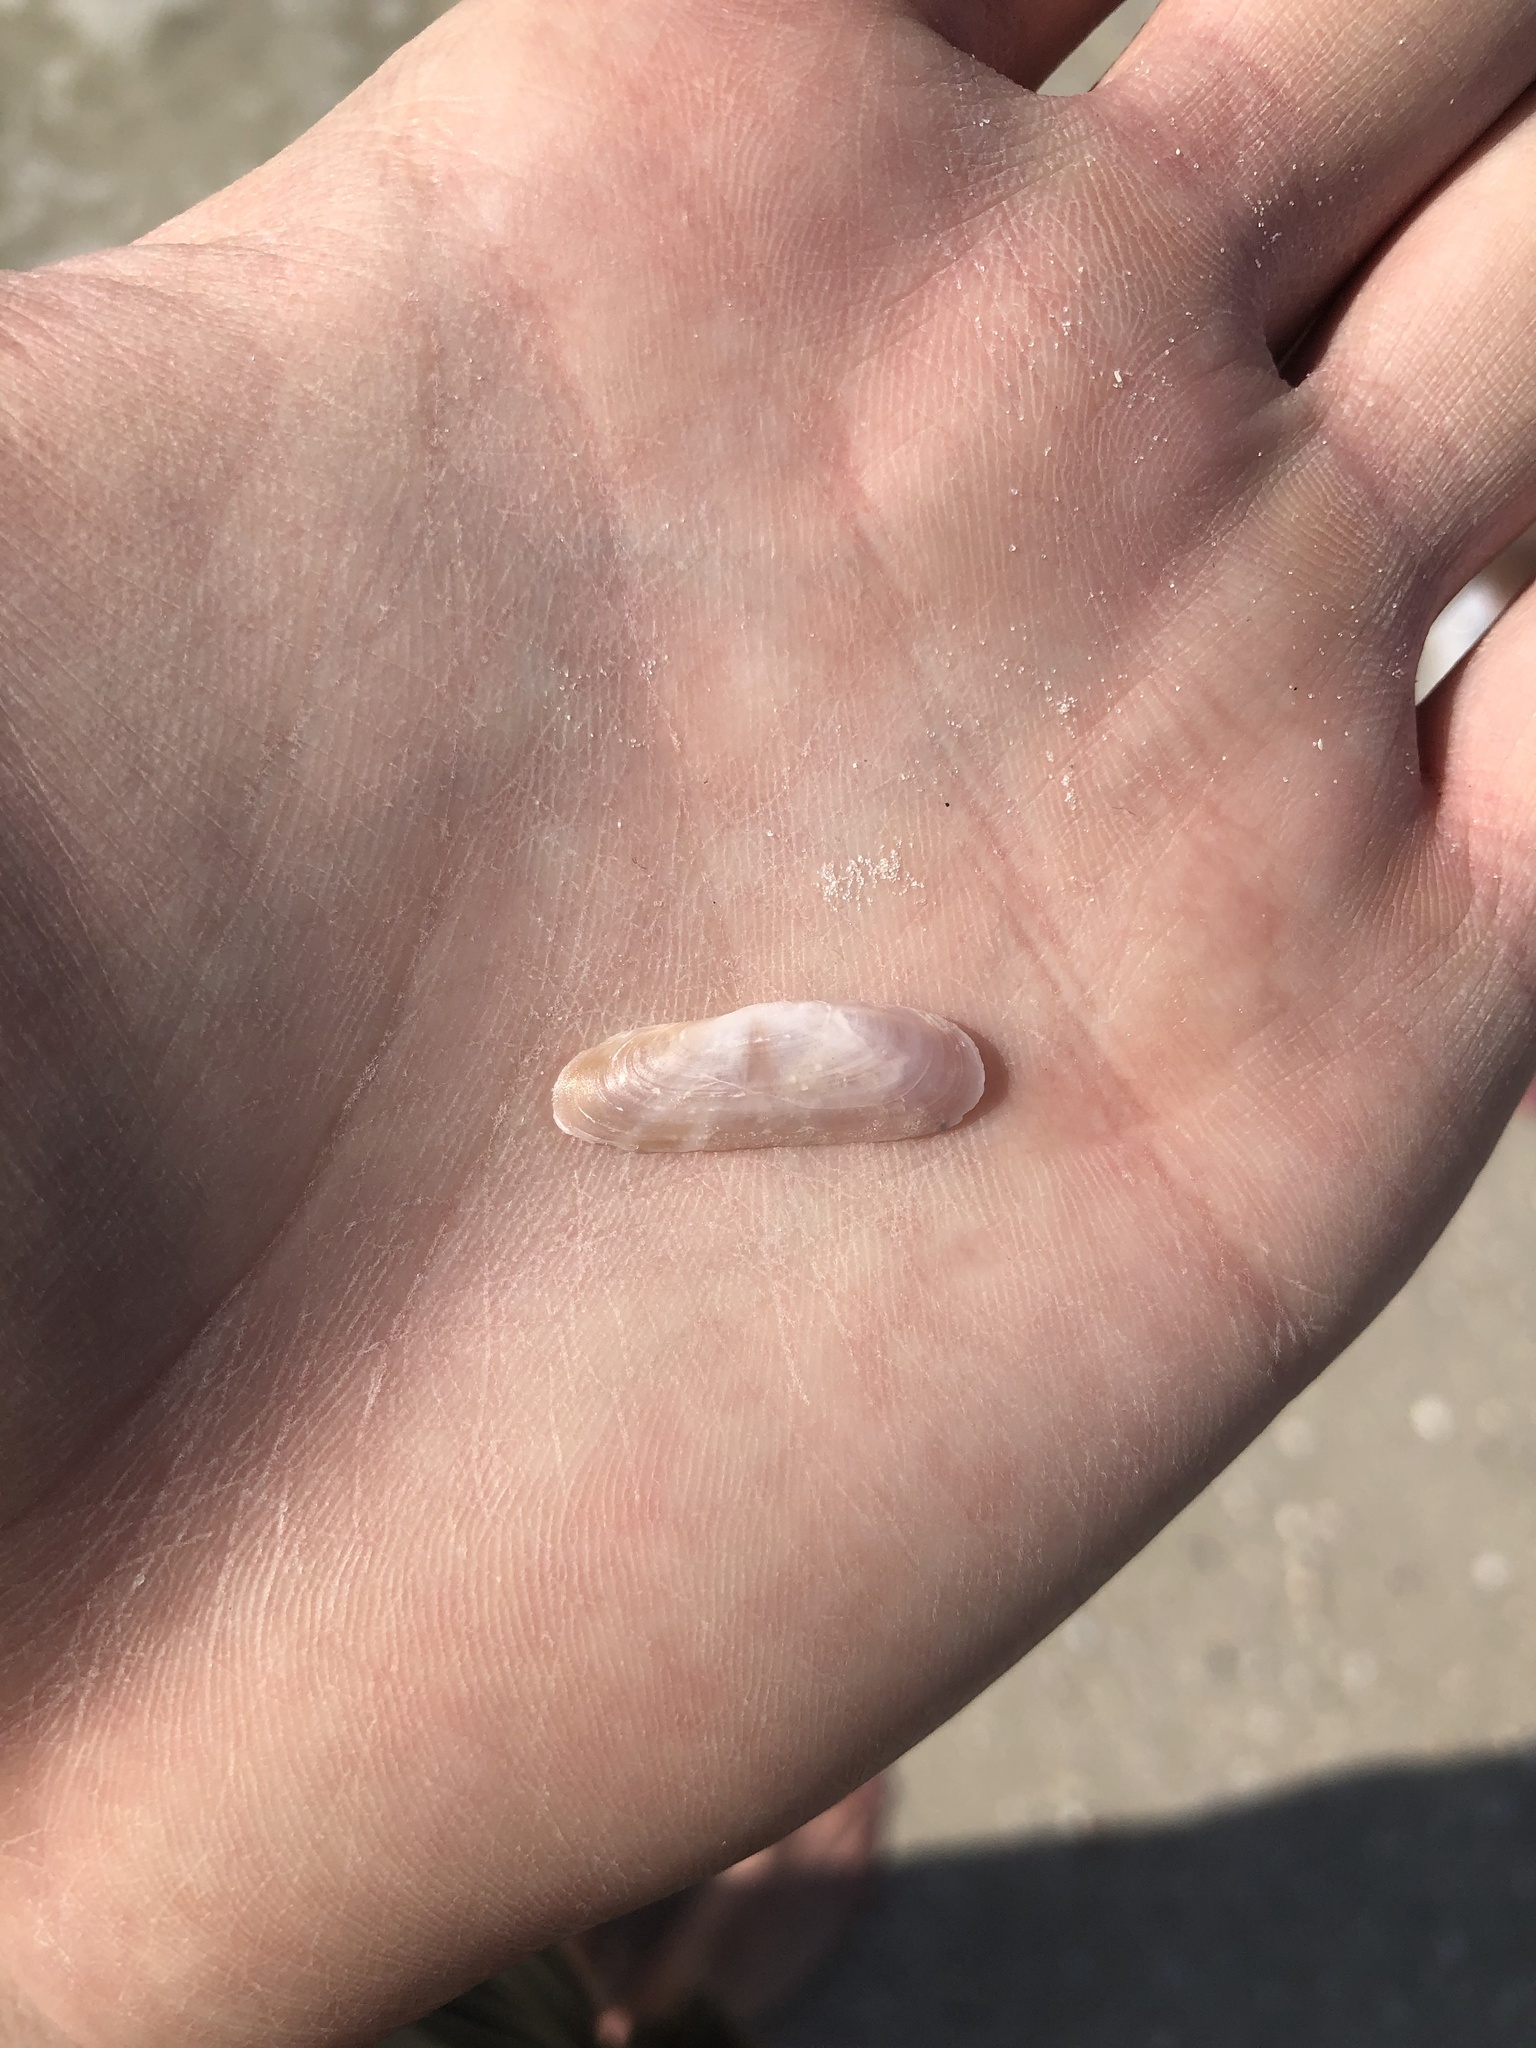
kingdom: Animalia
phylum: Mollusca
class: Bivalvia
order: Cardiida
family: Solecurtidae
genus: Tagelus
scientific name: Tagelus divisus
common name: Purplish tagelus
